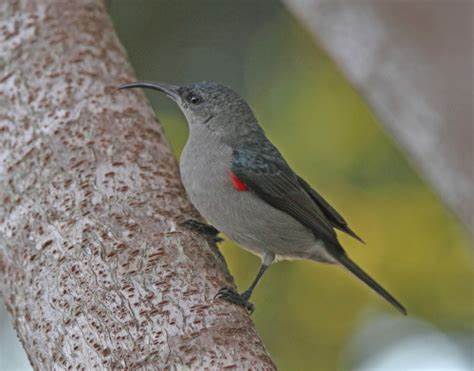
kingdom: Animalia
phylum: Chordata
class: Aves
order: Passeriformes
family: Nectariniidae
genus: Cyanomitra
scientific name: Cyanomitra veroxii
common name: Grey sunbird
